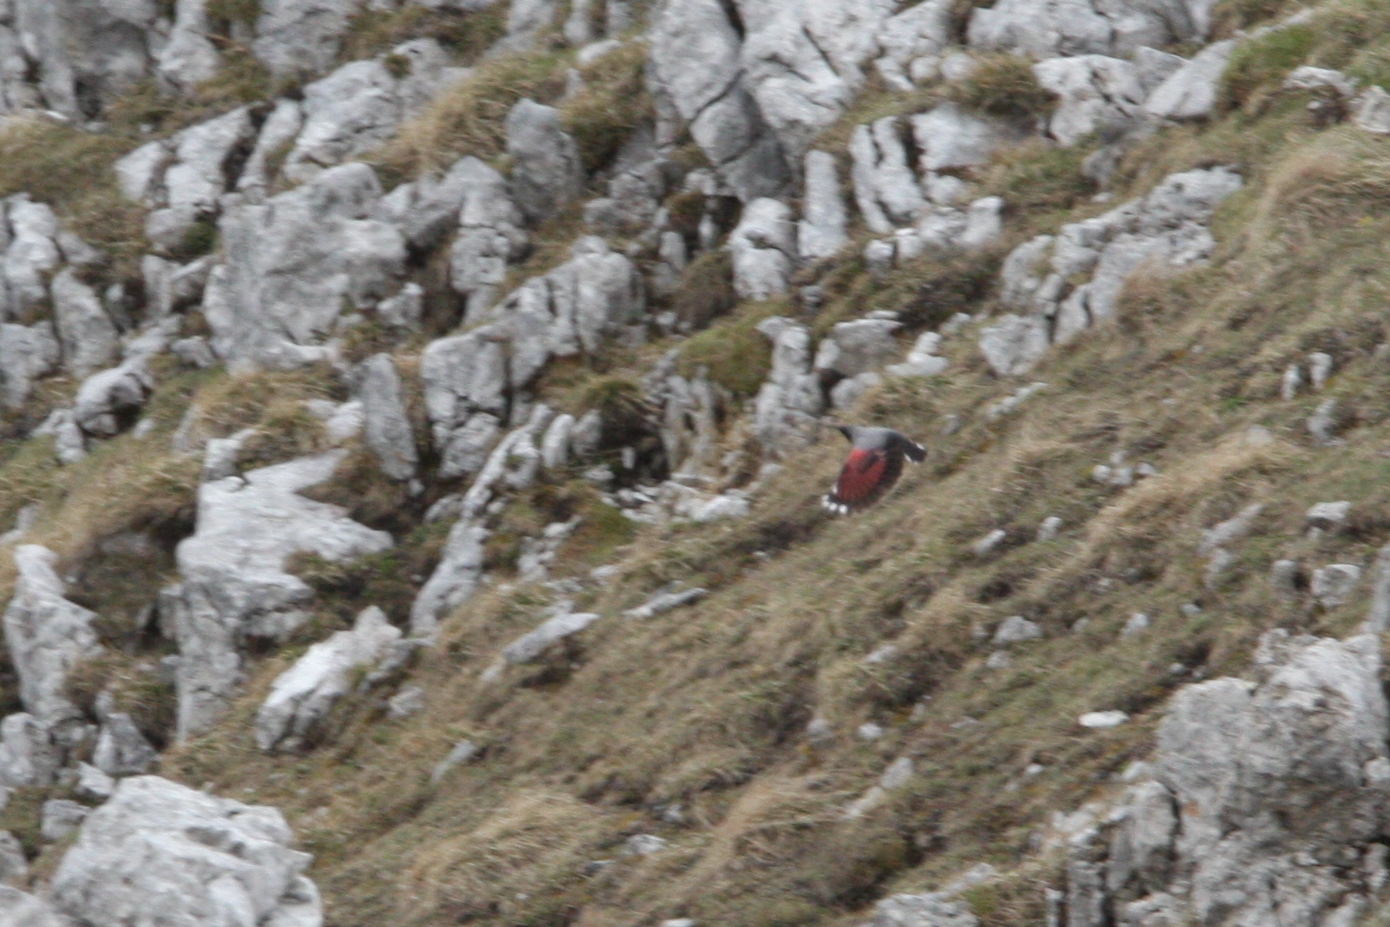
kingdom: Animalia
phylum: Chordata
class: Aves
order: Passeriformes
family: Tichodromidae
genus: Tichodroma
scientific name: Tichodroma muraria
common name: Wallcreeper
